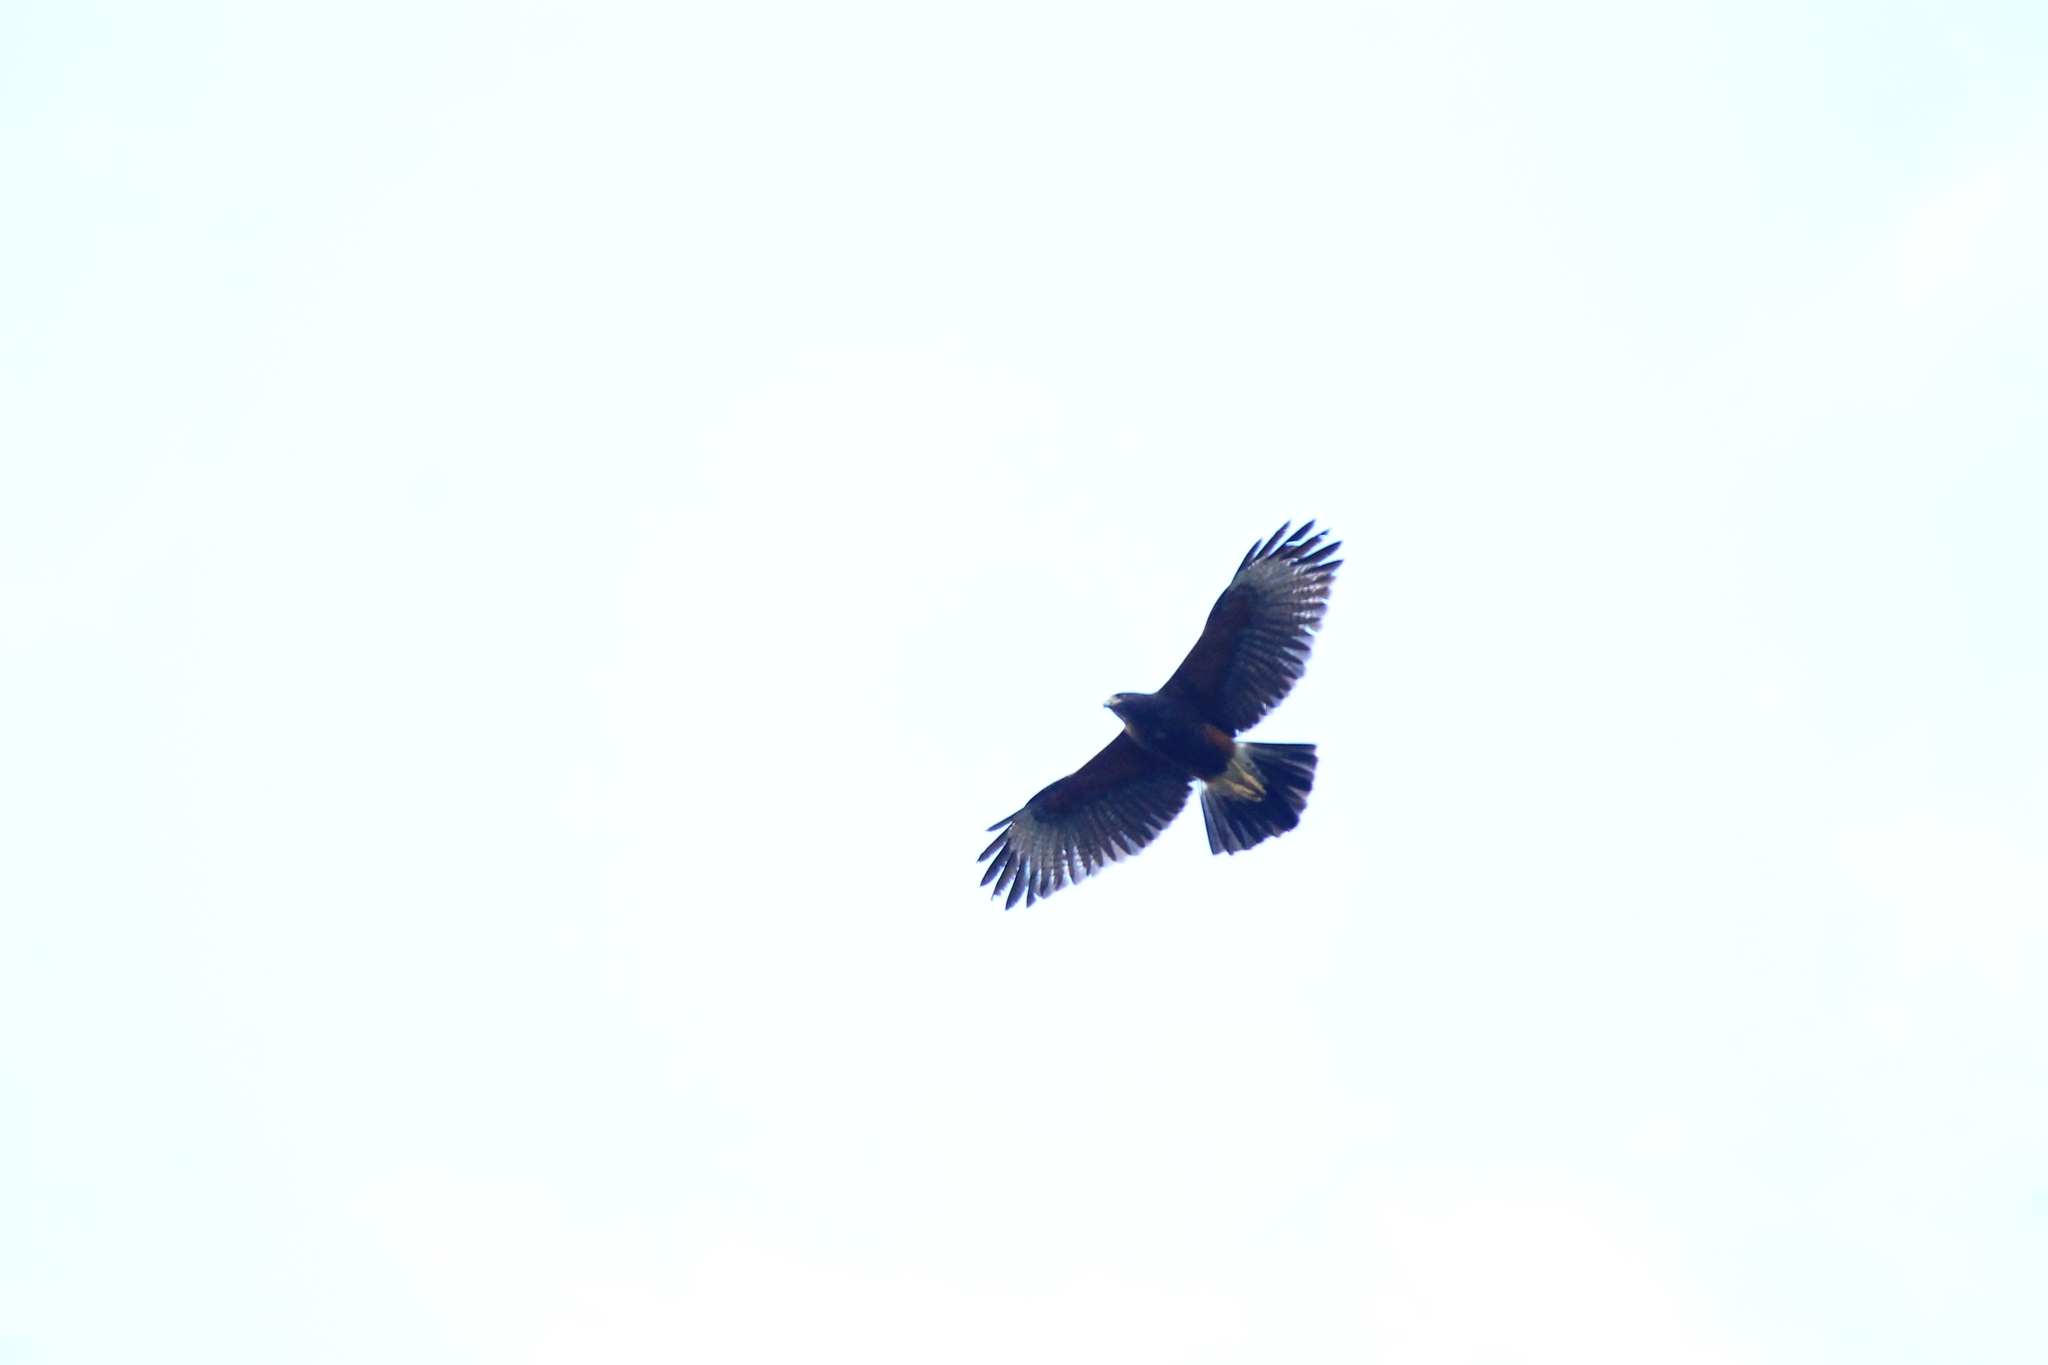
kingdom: Animalia
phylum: Chordata
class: Aves
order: Accipitriformes
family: Accipitridae
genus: Parabuteo
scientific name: Parabuteo unicinctus
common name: Harris's hawk
